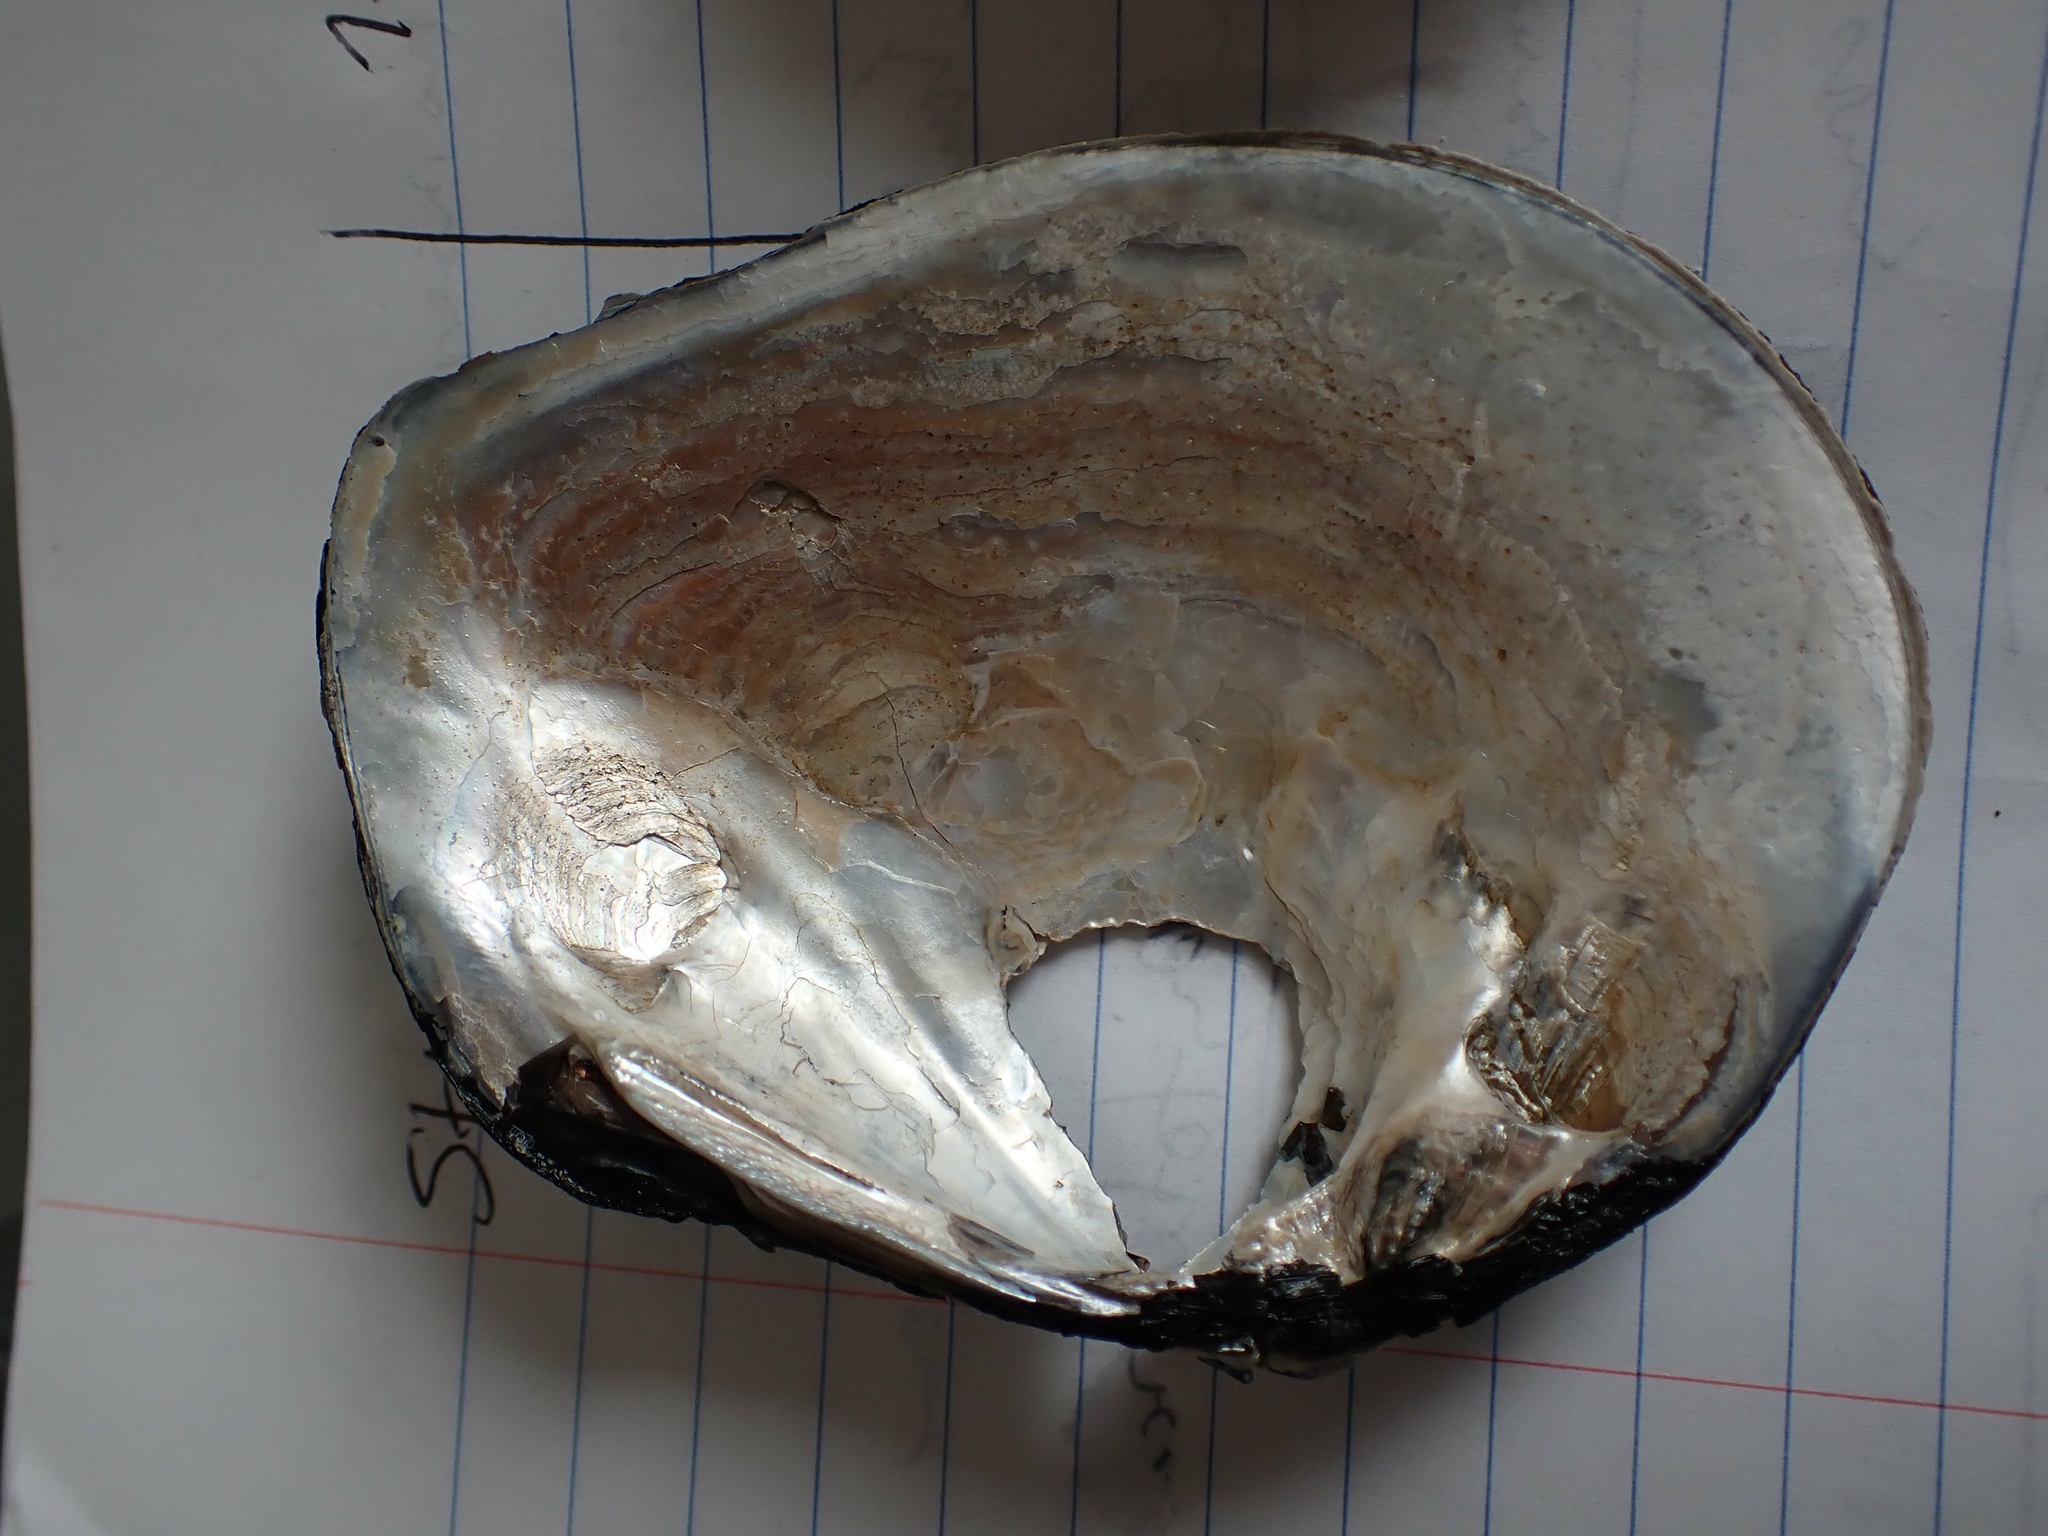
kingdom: Animalia
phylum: Mollusca
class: Bivalvia
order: Unionida
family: Unionidae
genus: Fusconaia
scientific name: Fusconaia flava
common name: Wabash pigtoe
